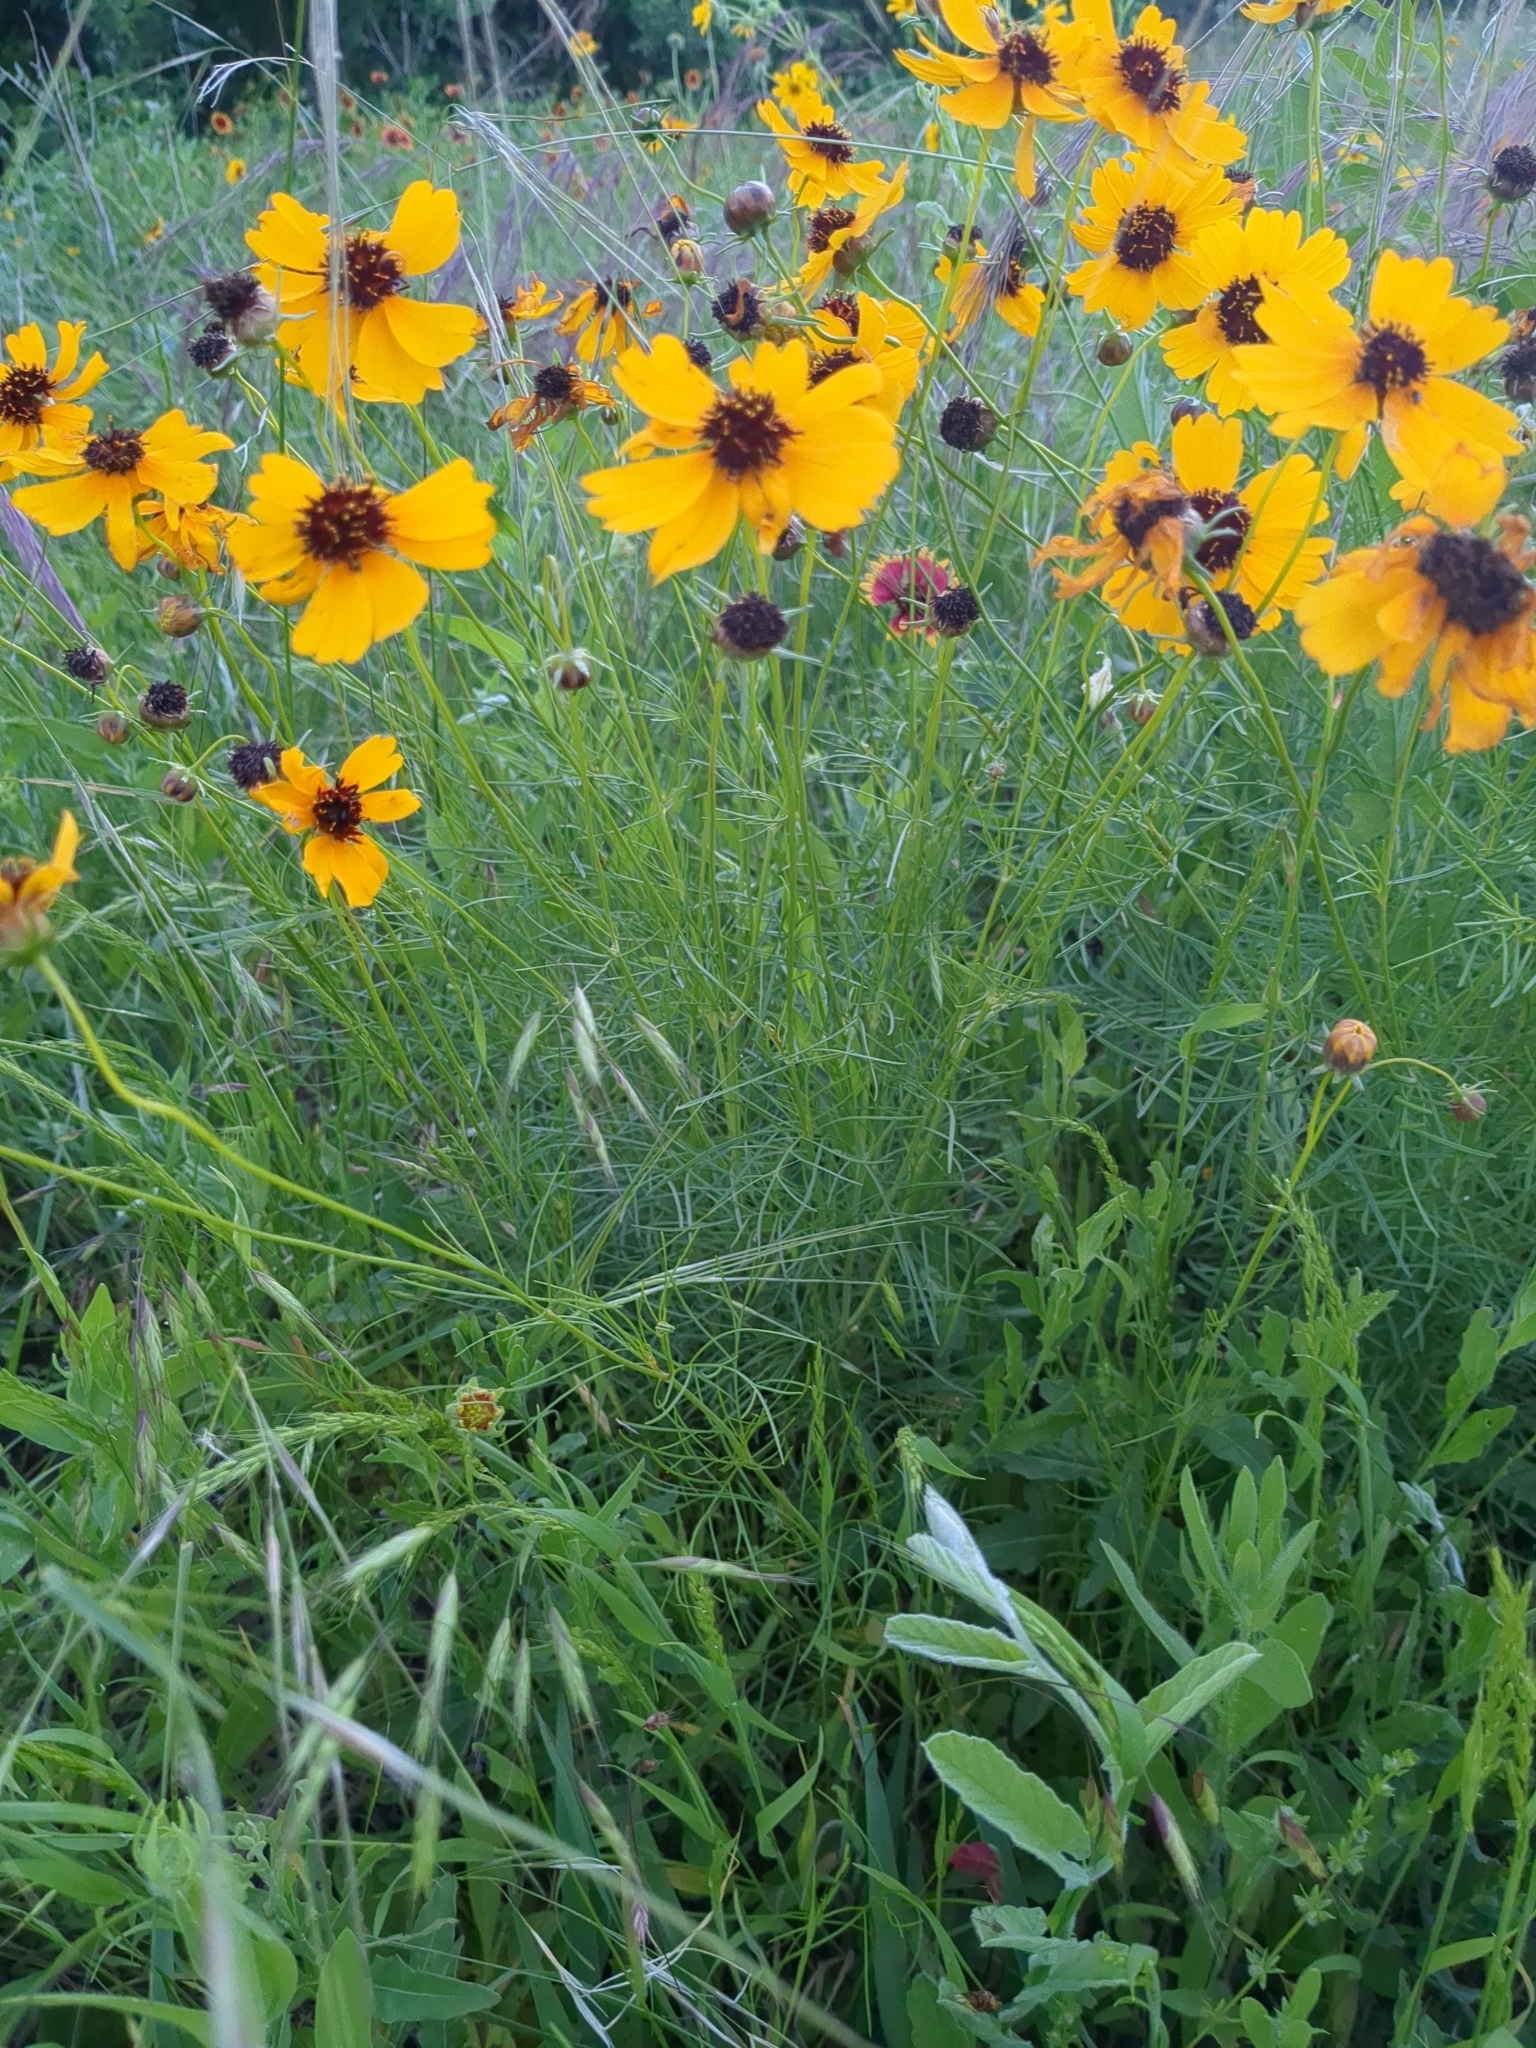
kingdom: Plantae
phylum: Tracheophyta
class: Magnoliopsida
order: Asterales
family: Asteraceae
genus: Thelesperma
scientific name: Thelesperma filifolium
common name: Stiff greenthread
